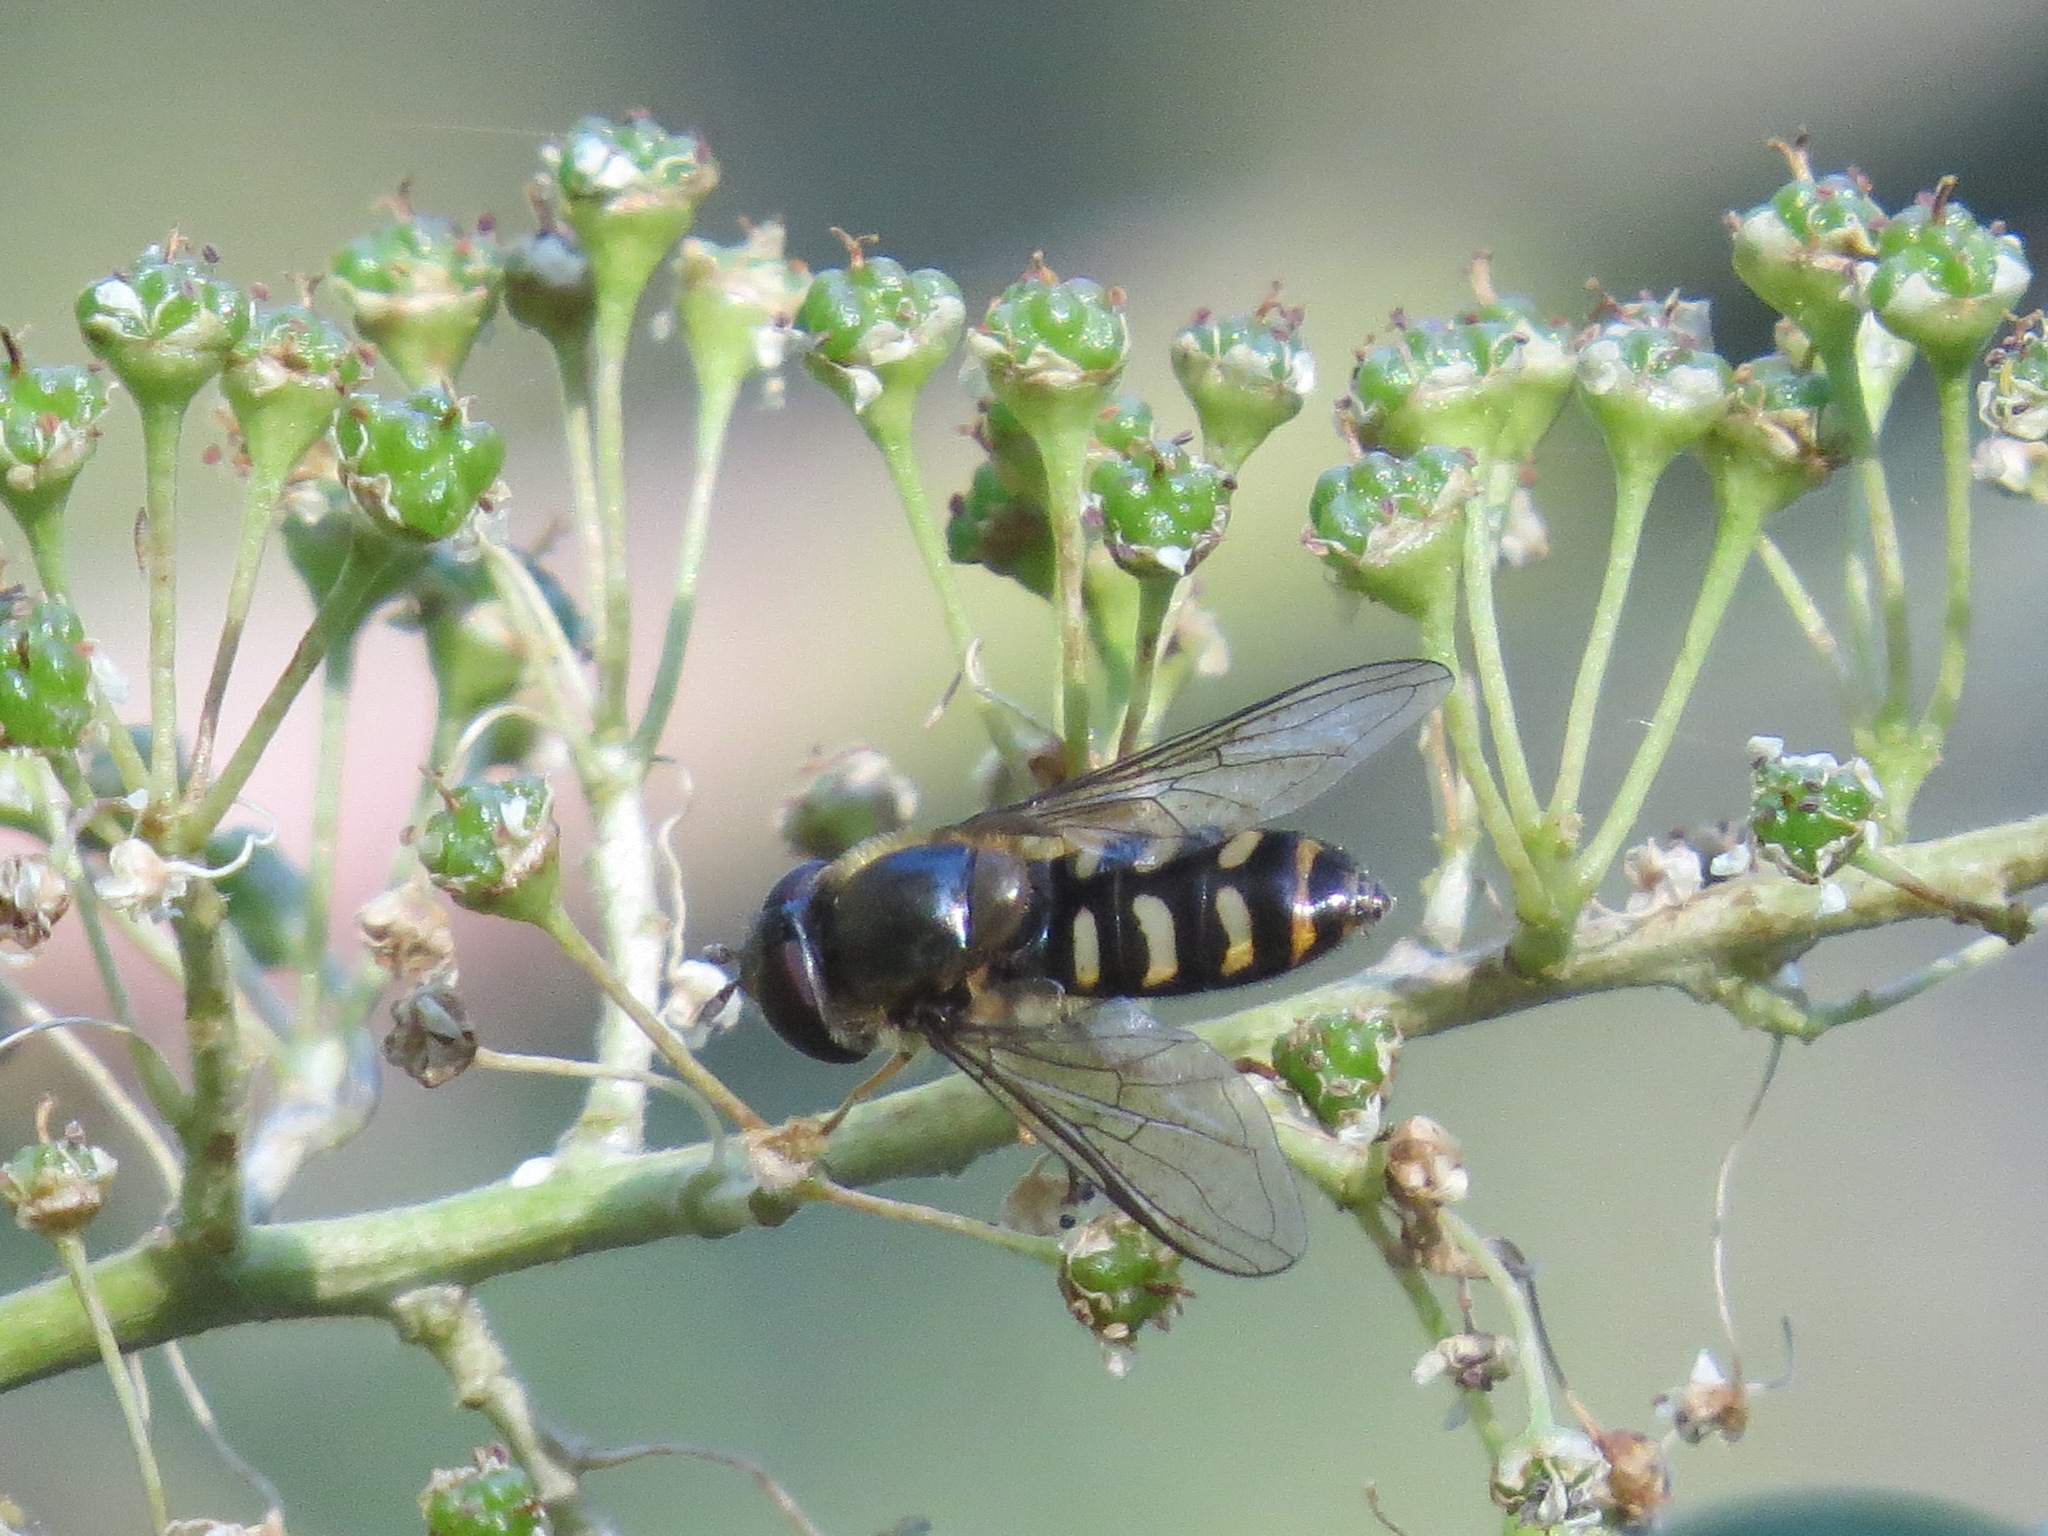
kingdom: Animalia
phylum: Arthropoda
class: Insecta
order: Diptera
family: Syrphidae
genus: Lapposyrphus
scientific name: Lapposyrphus lapponicus
